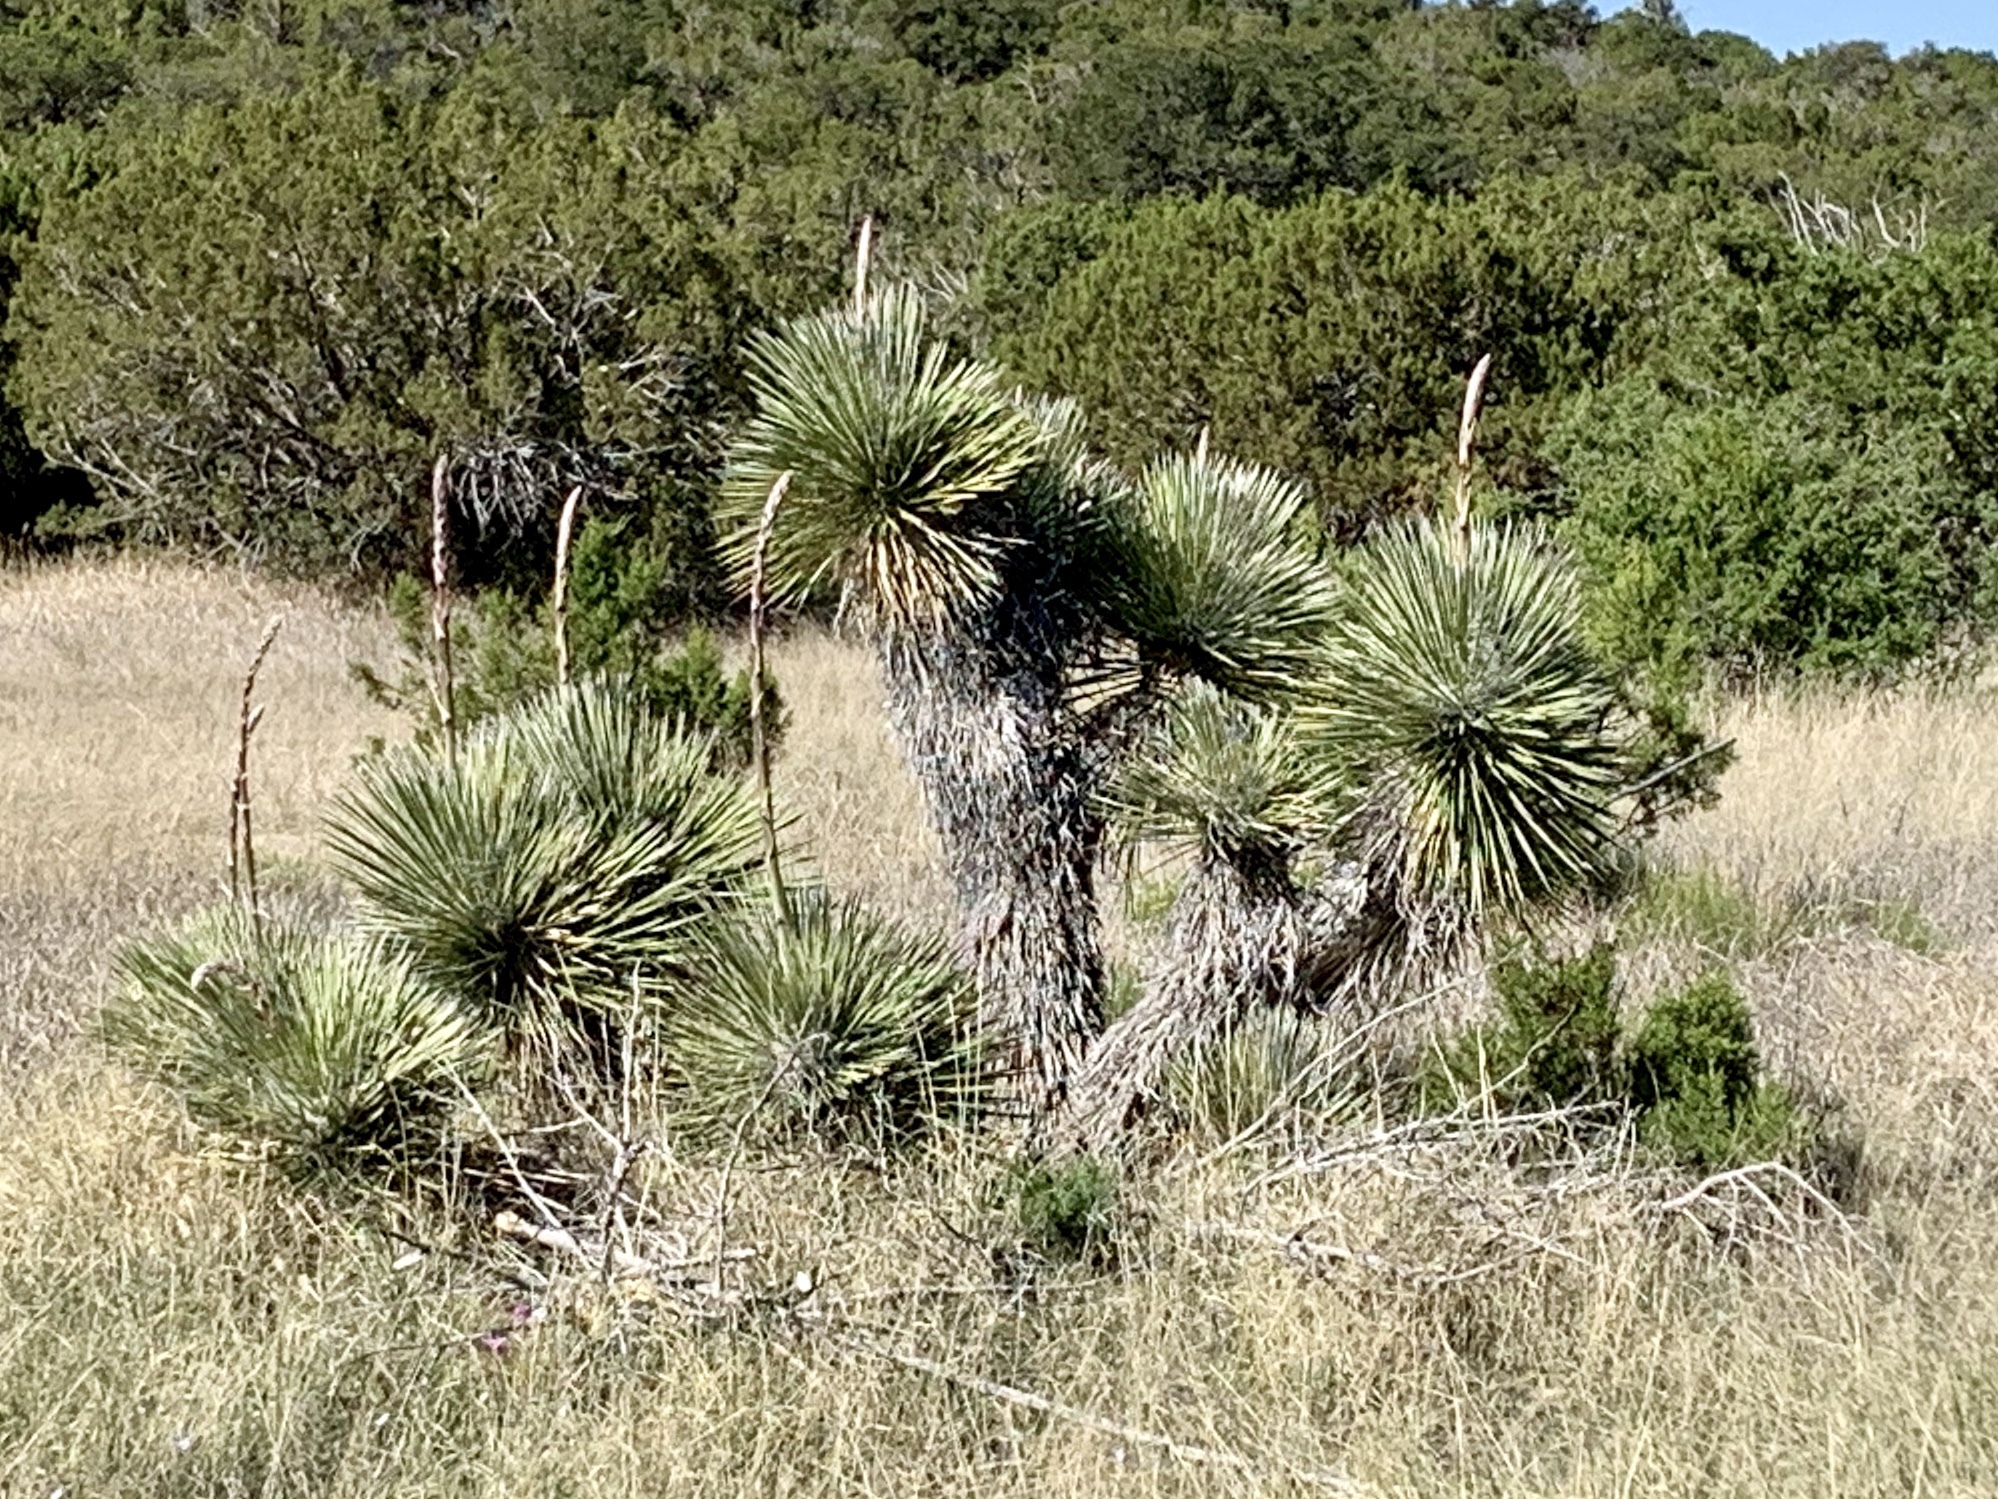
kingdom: Plantae
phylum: Tracheophyta
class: Liliopsida
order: Asparagales
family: Asparagaceae
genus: Yucca
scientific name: Yucca elata
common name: Palmella
